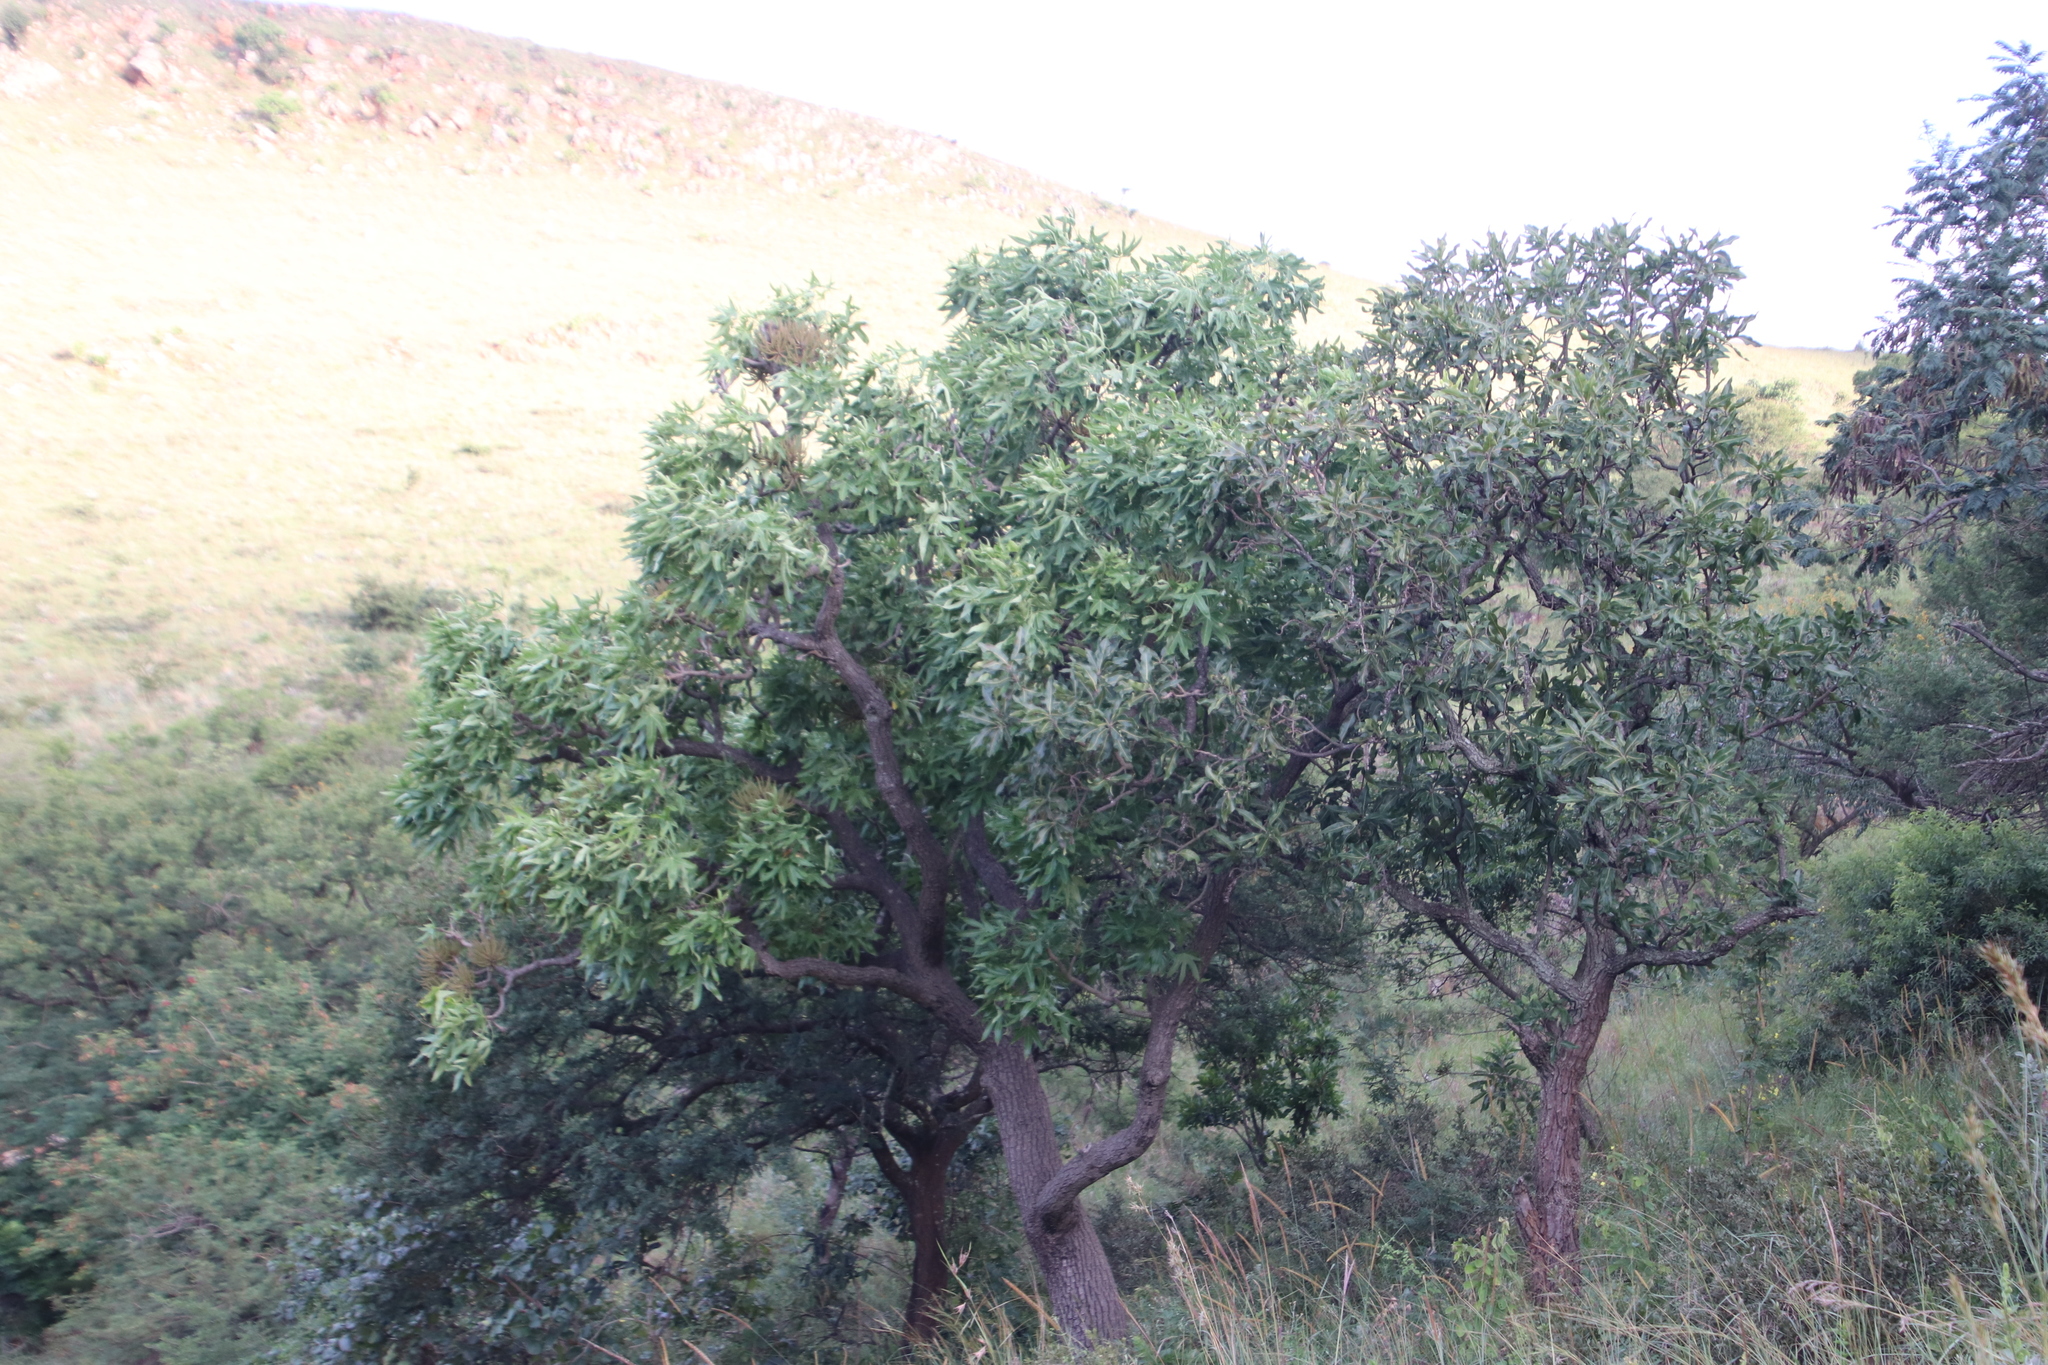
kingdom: Plantae
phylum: Tracheophyta
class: Magnoliopsida
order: Apiales
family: Araliaceae
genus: Cussonia
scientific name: Cussonia natalensis
